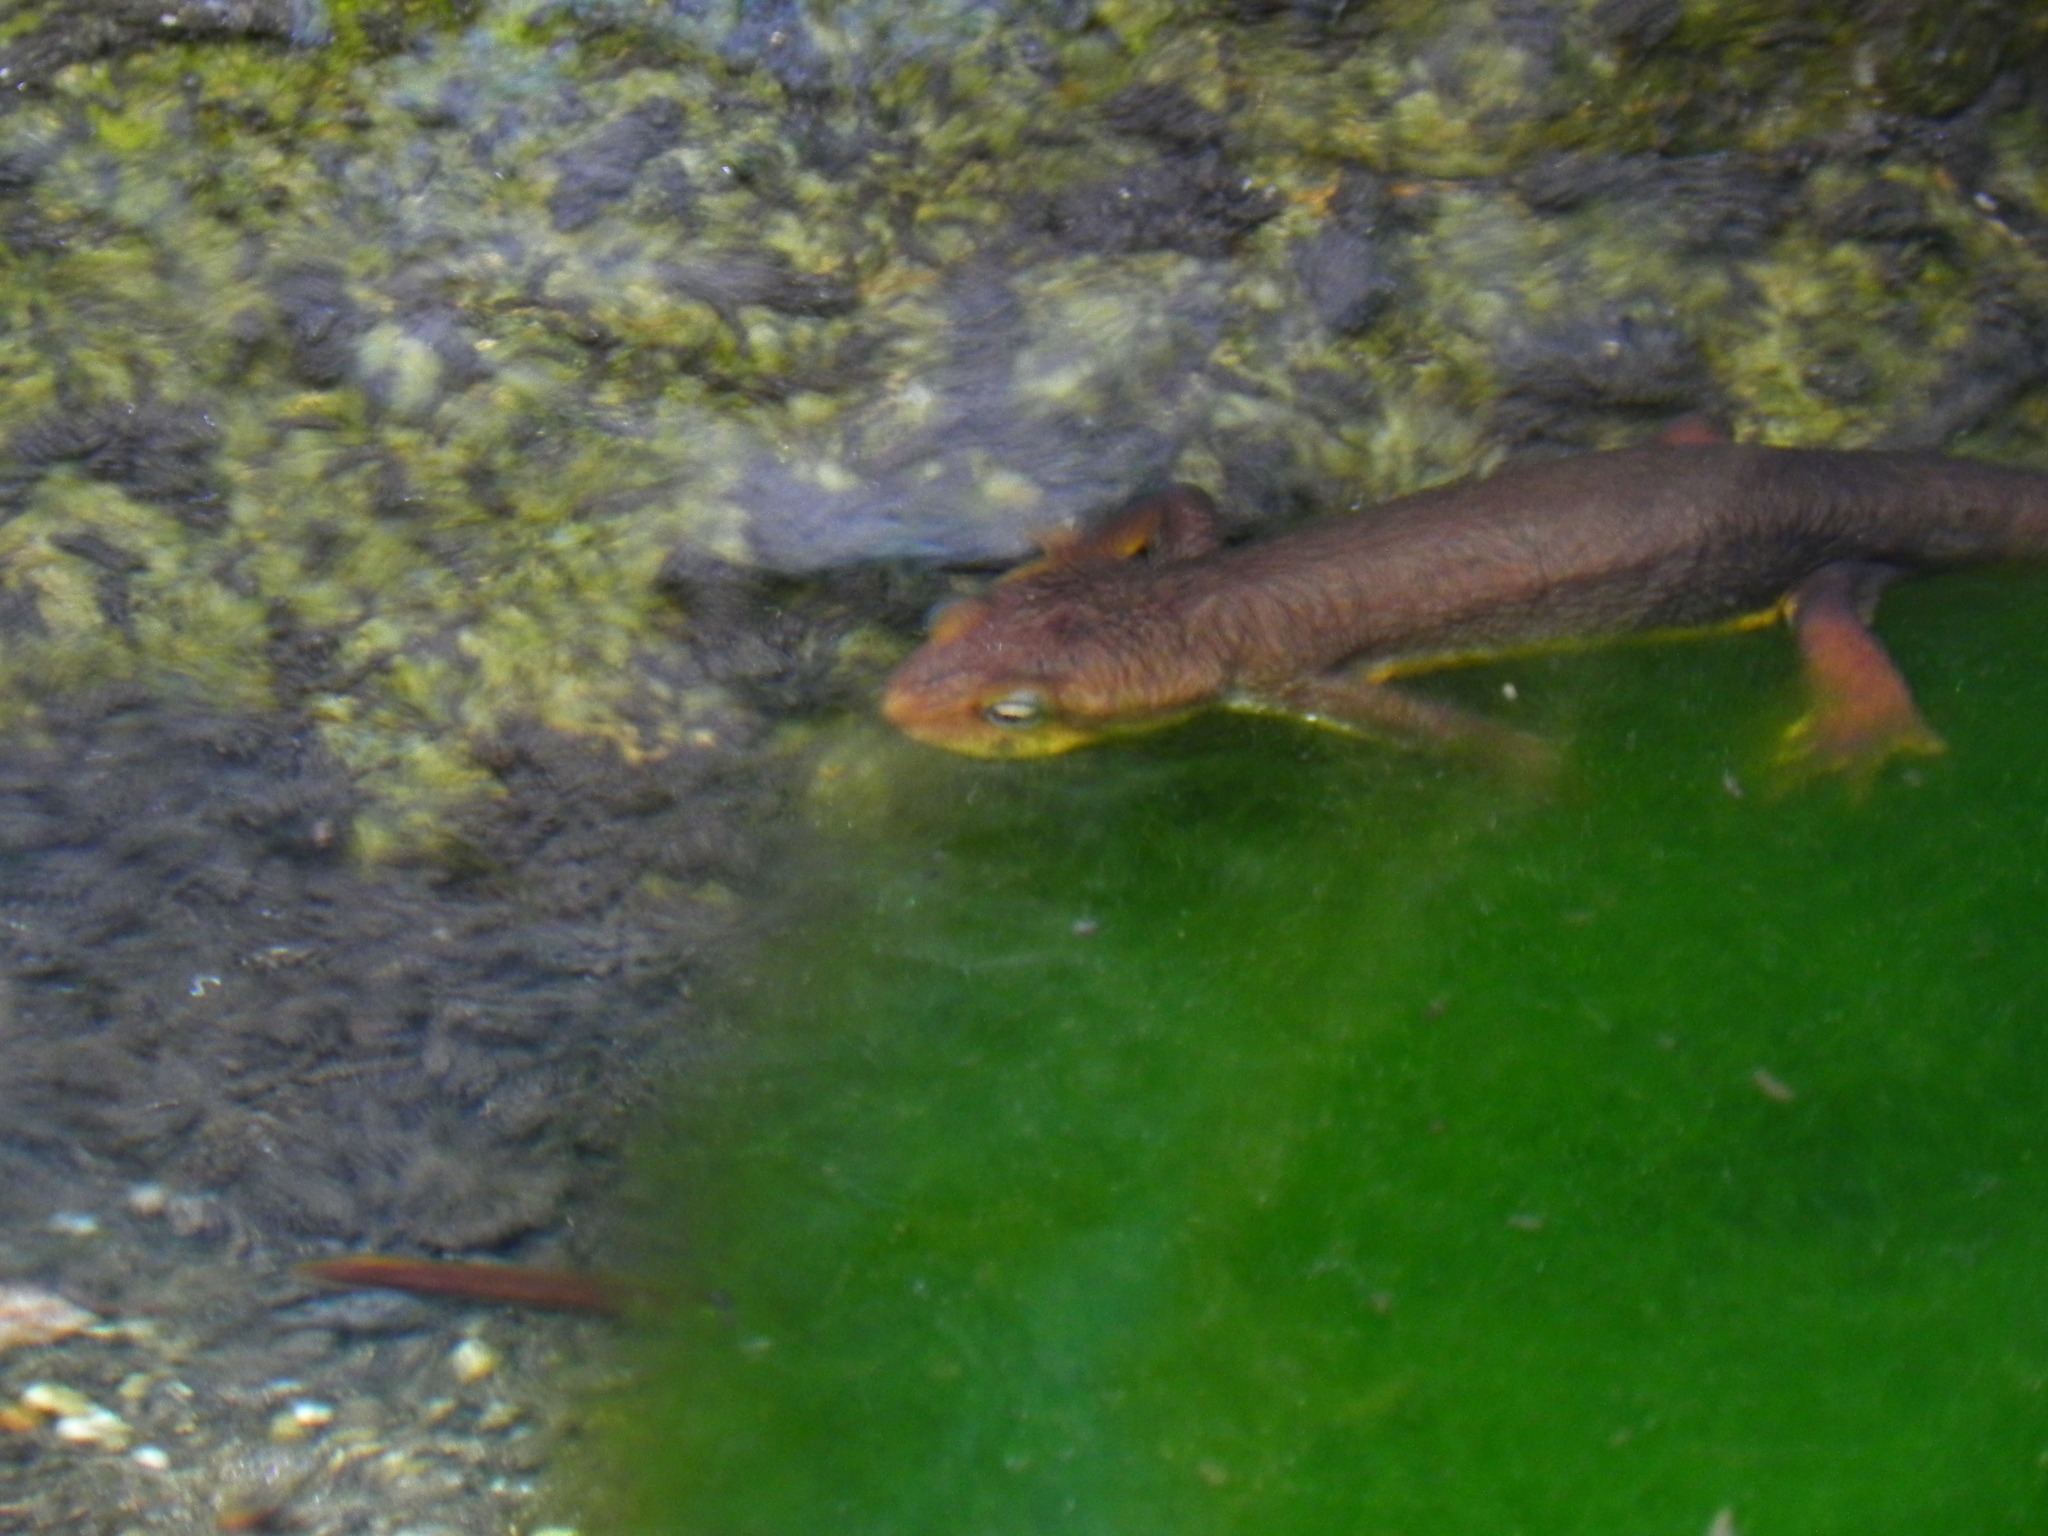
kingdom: Animalia
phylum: Chordata
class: Amphibia
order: Caudata
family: Salamandridae
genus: Taricha
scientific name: Taricha torosa
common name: California newt
